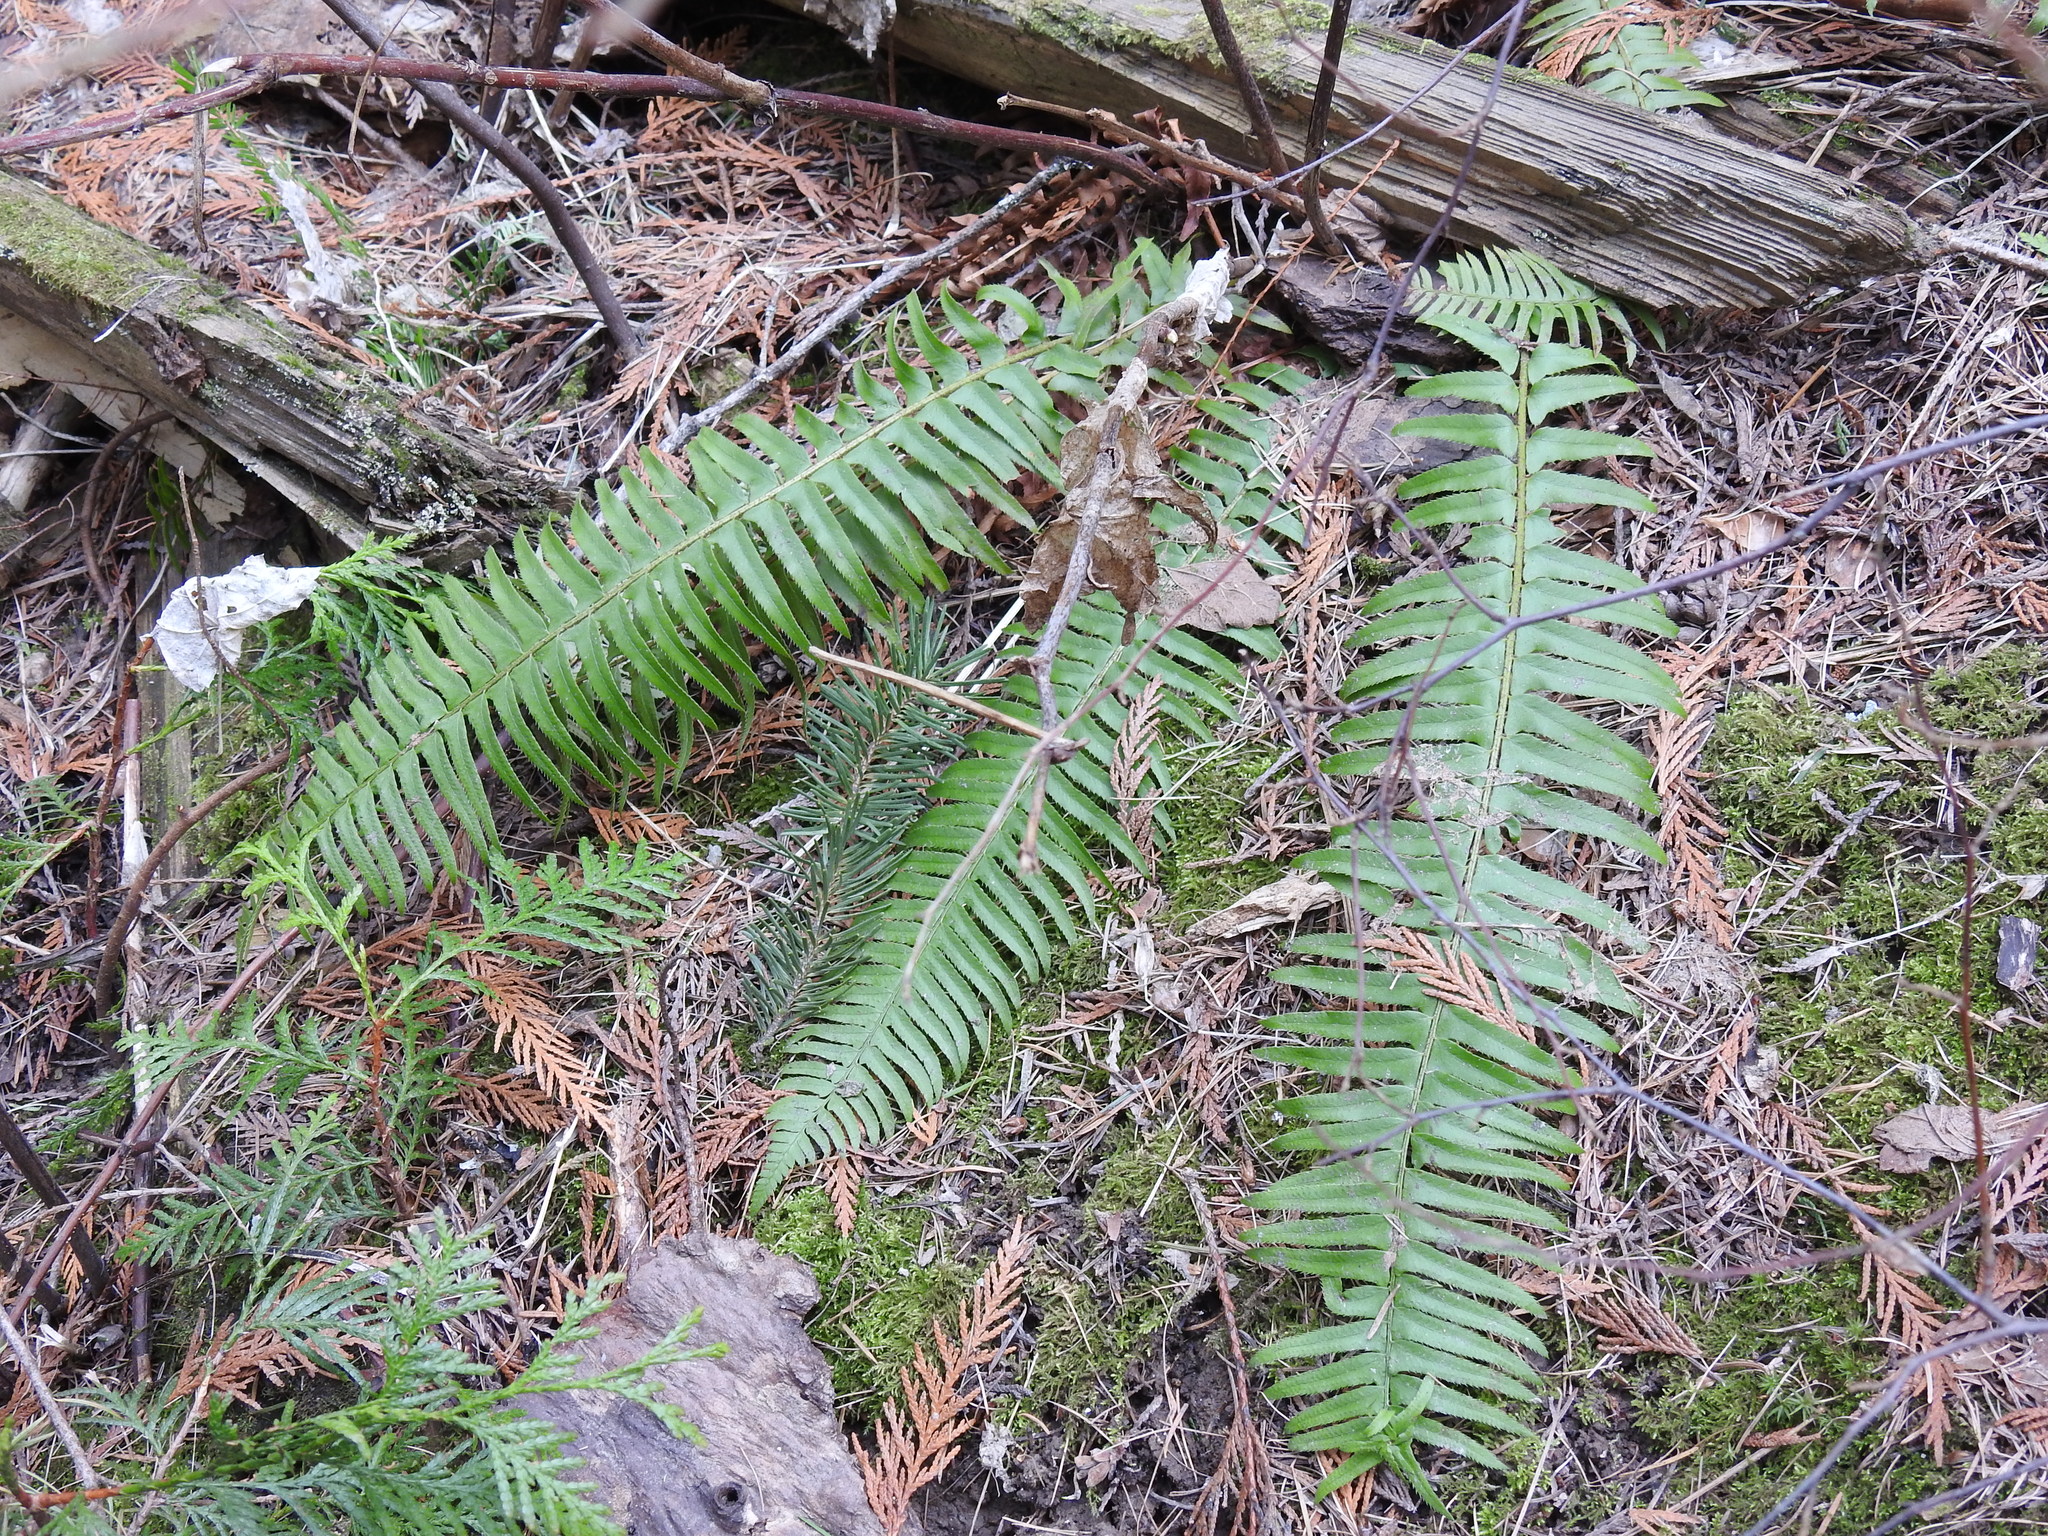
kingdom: Plantae
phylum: Tracheophyta
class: Polypodiopsida
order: Polypodiales
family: Dryopteridaceae
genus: Polystichum
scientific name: Polystichum munitum
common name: Western sword-fern
